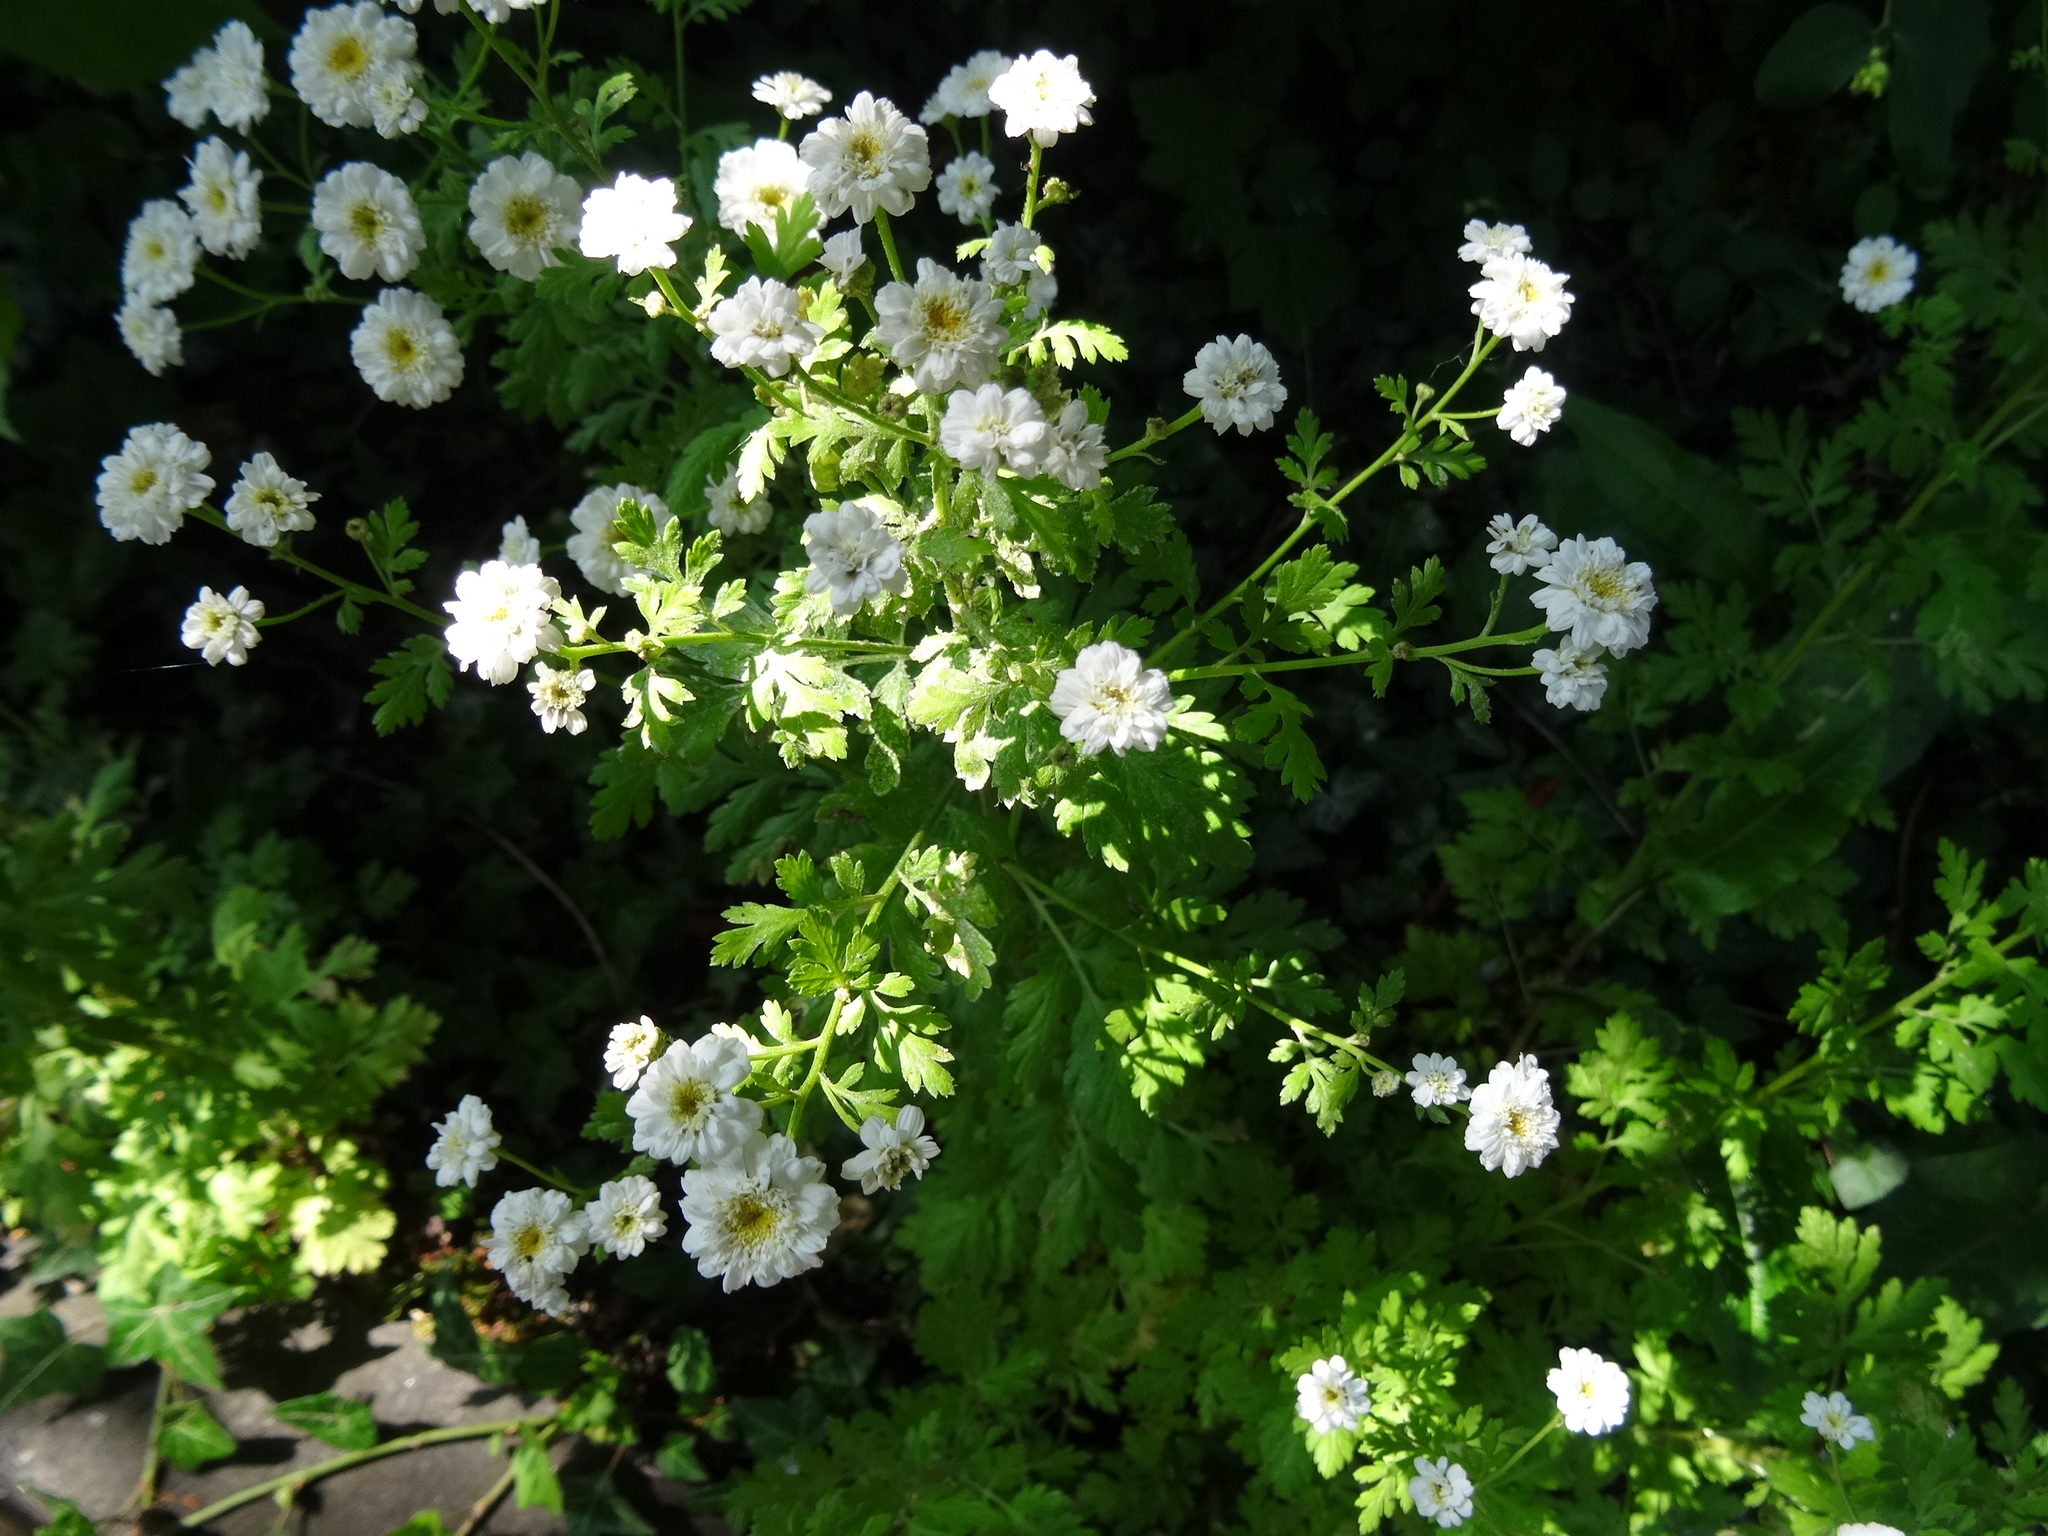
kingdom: Plantae
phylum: Tracheophyta
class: Magnoliopsida
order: Asterales
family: Asteraceae
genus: Tanacetum
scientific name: Tanacetum parthenium
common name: Feverfew
